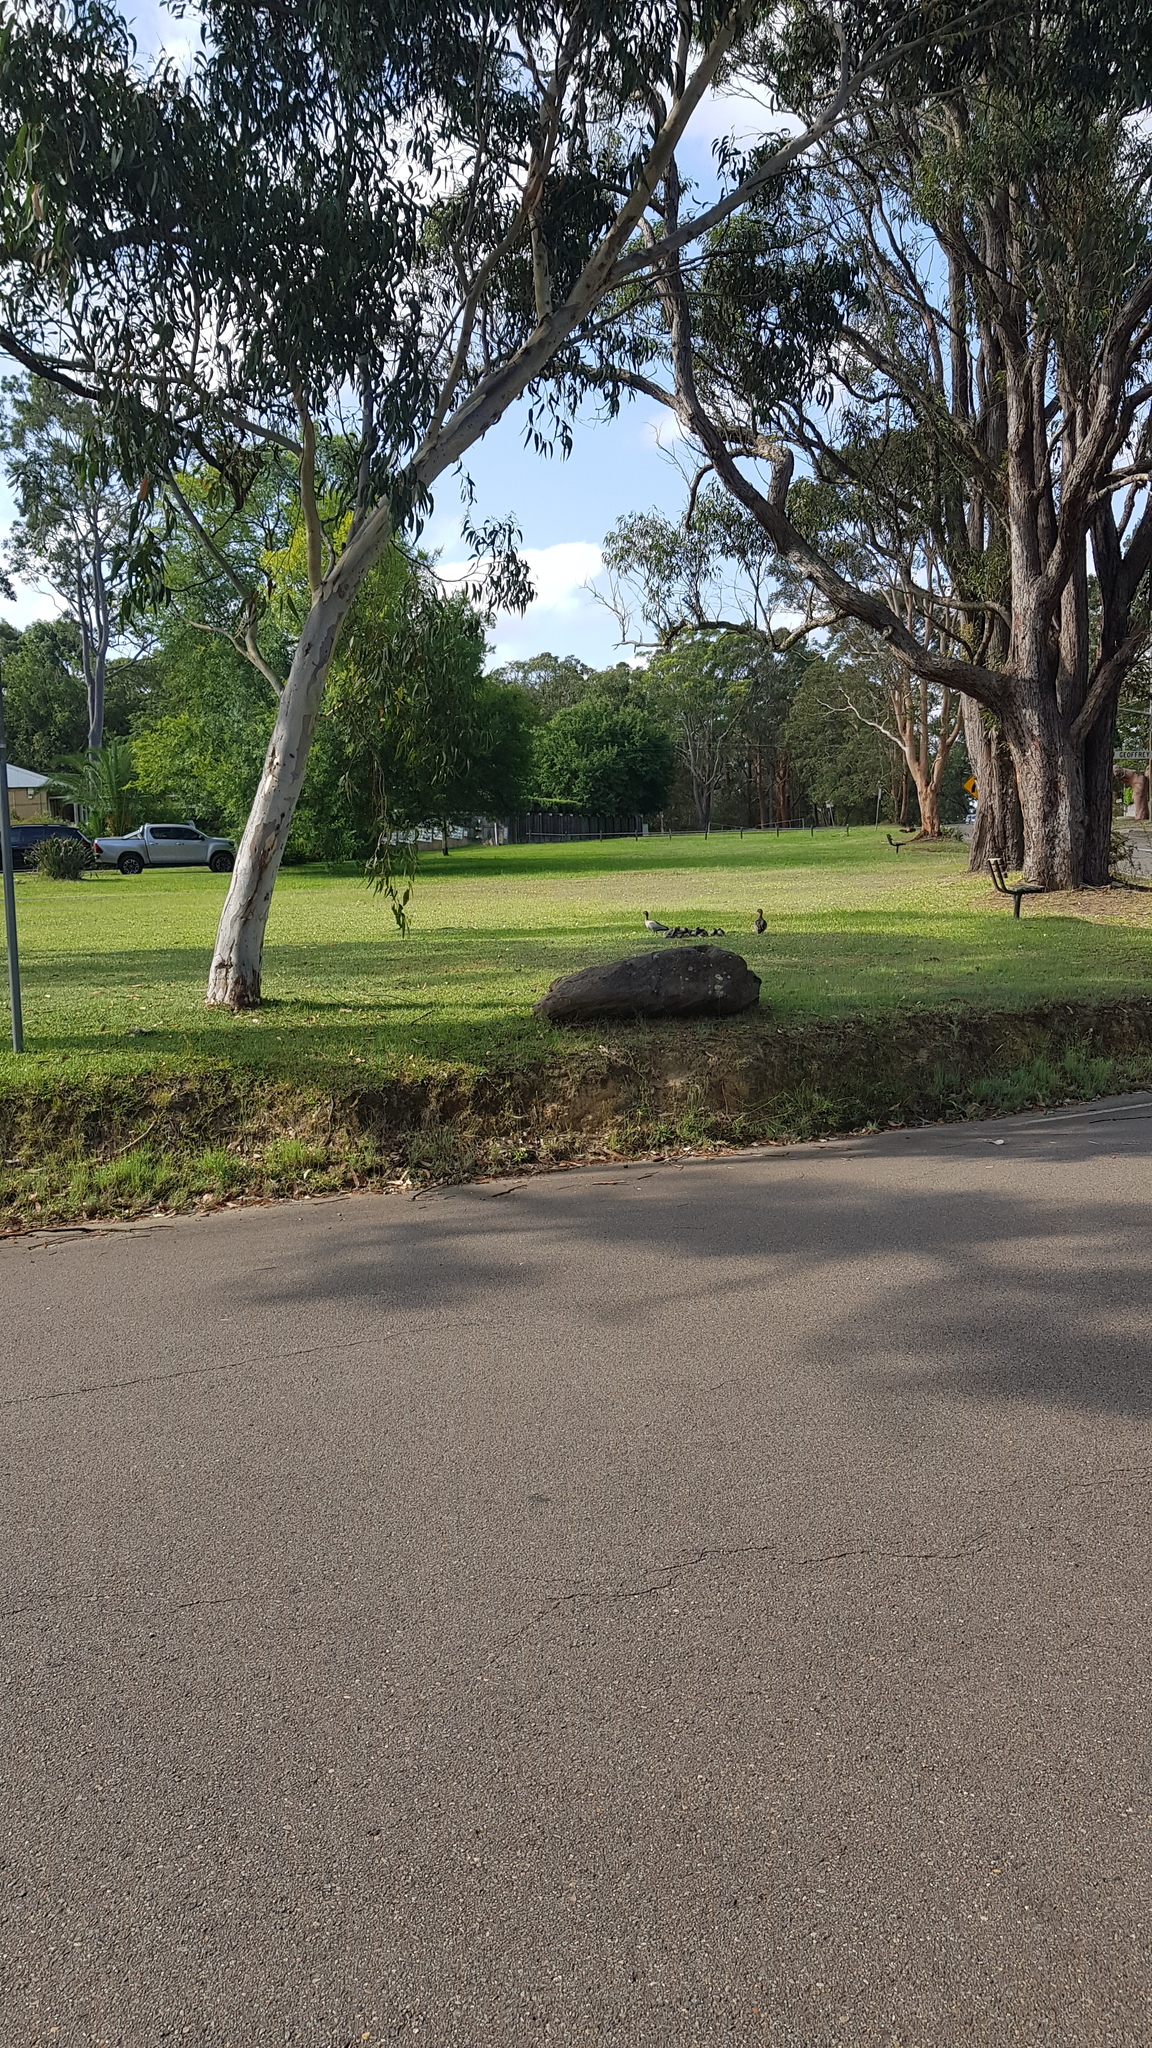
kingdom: Animalia
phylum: Chordata
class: Aves
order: Anseriformes
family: Anatidae
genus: Chenonetta
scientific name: Chenonetta jubata
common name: Maned duck
